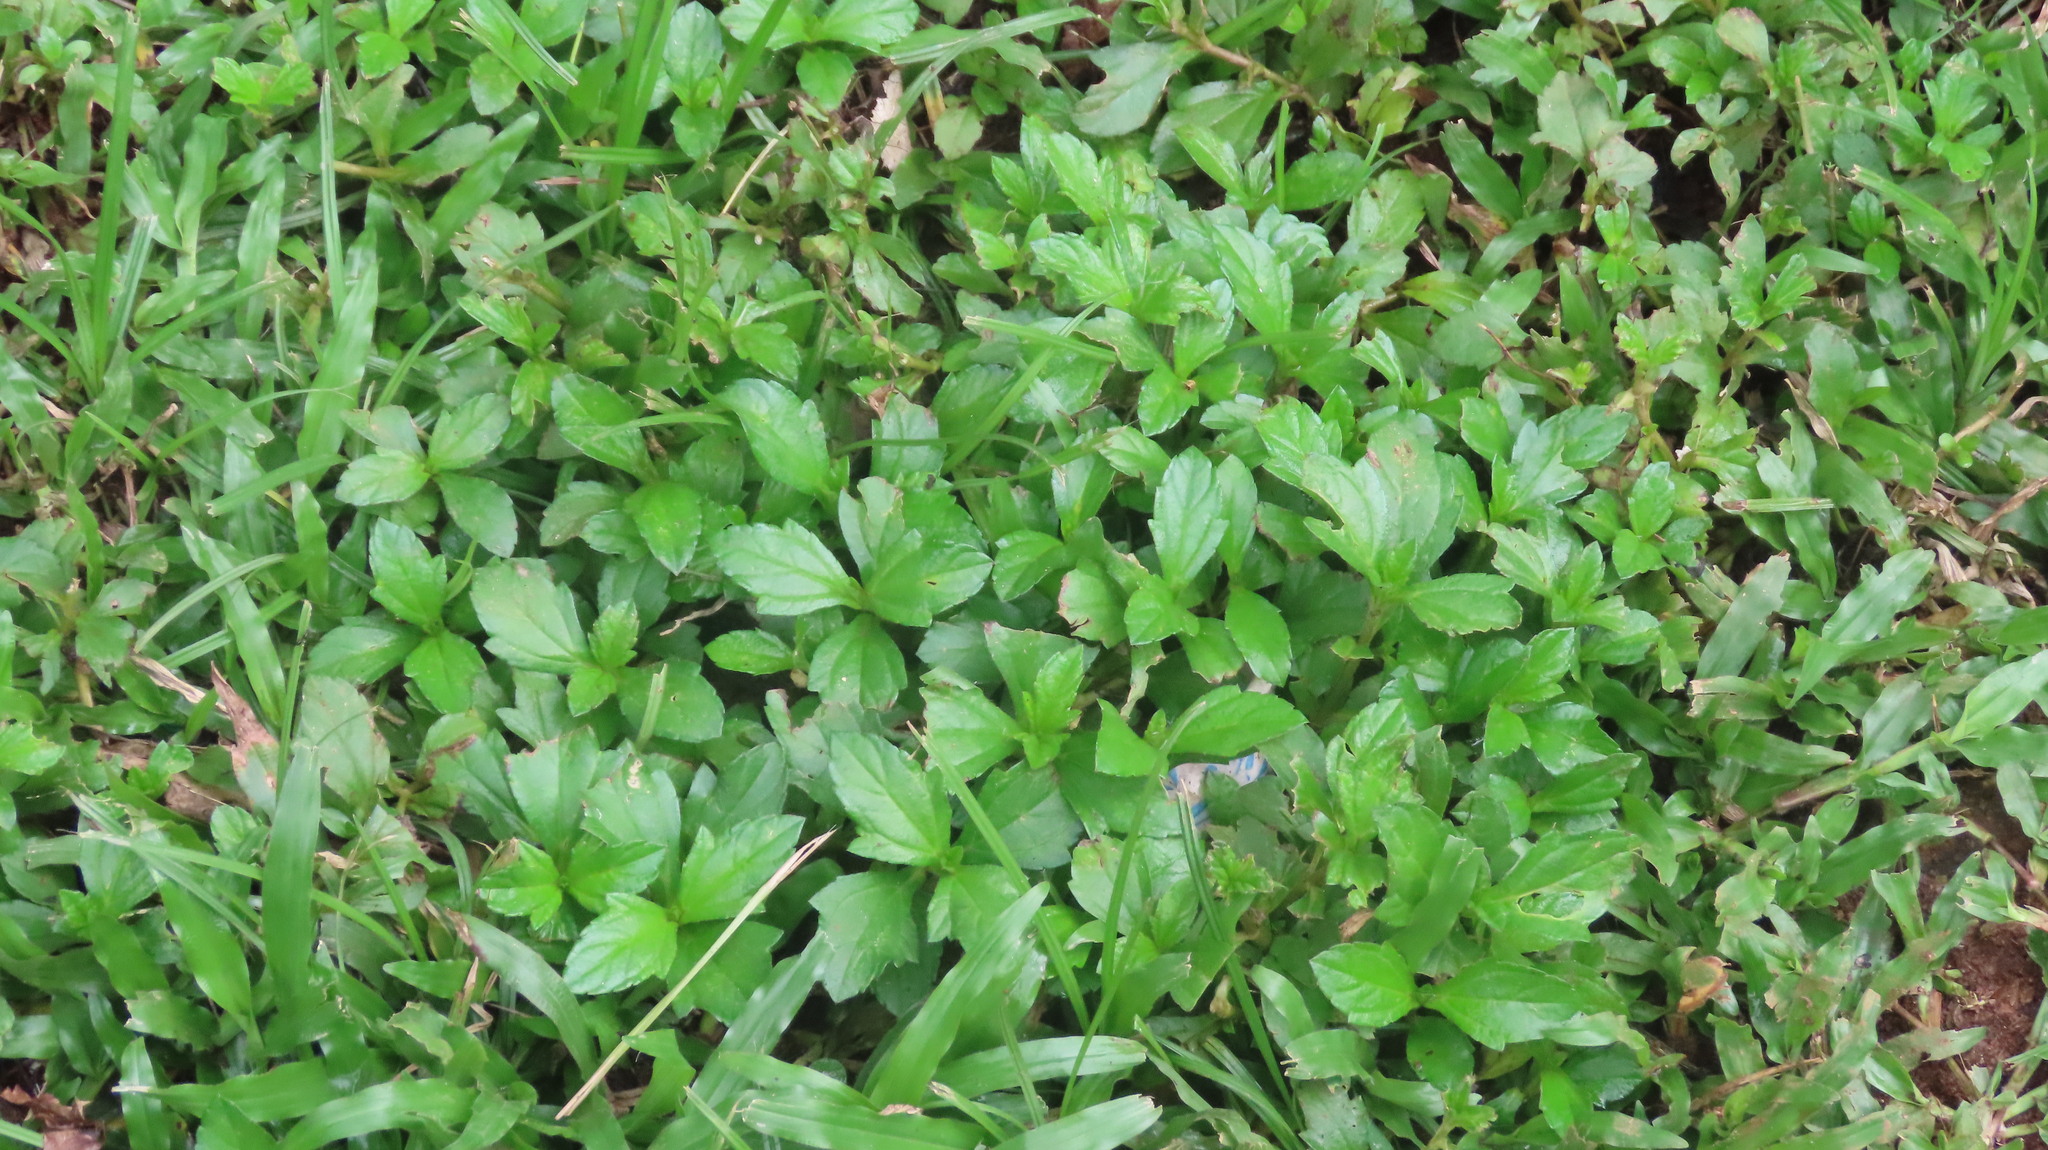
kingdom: Plantae
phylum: Tracheophyta
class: Magnoliopsida
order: Asterales
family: Asteraceae
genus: Sphagneticola
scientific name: Sphagneticola trilobata
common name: Bay biscayne creeping-oxeye
